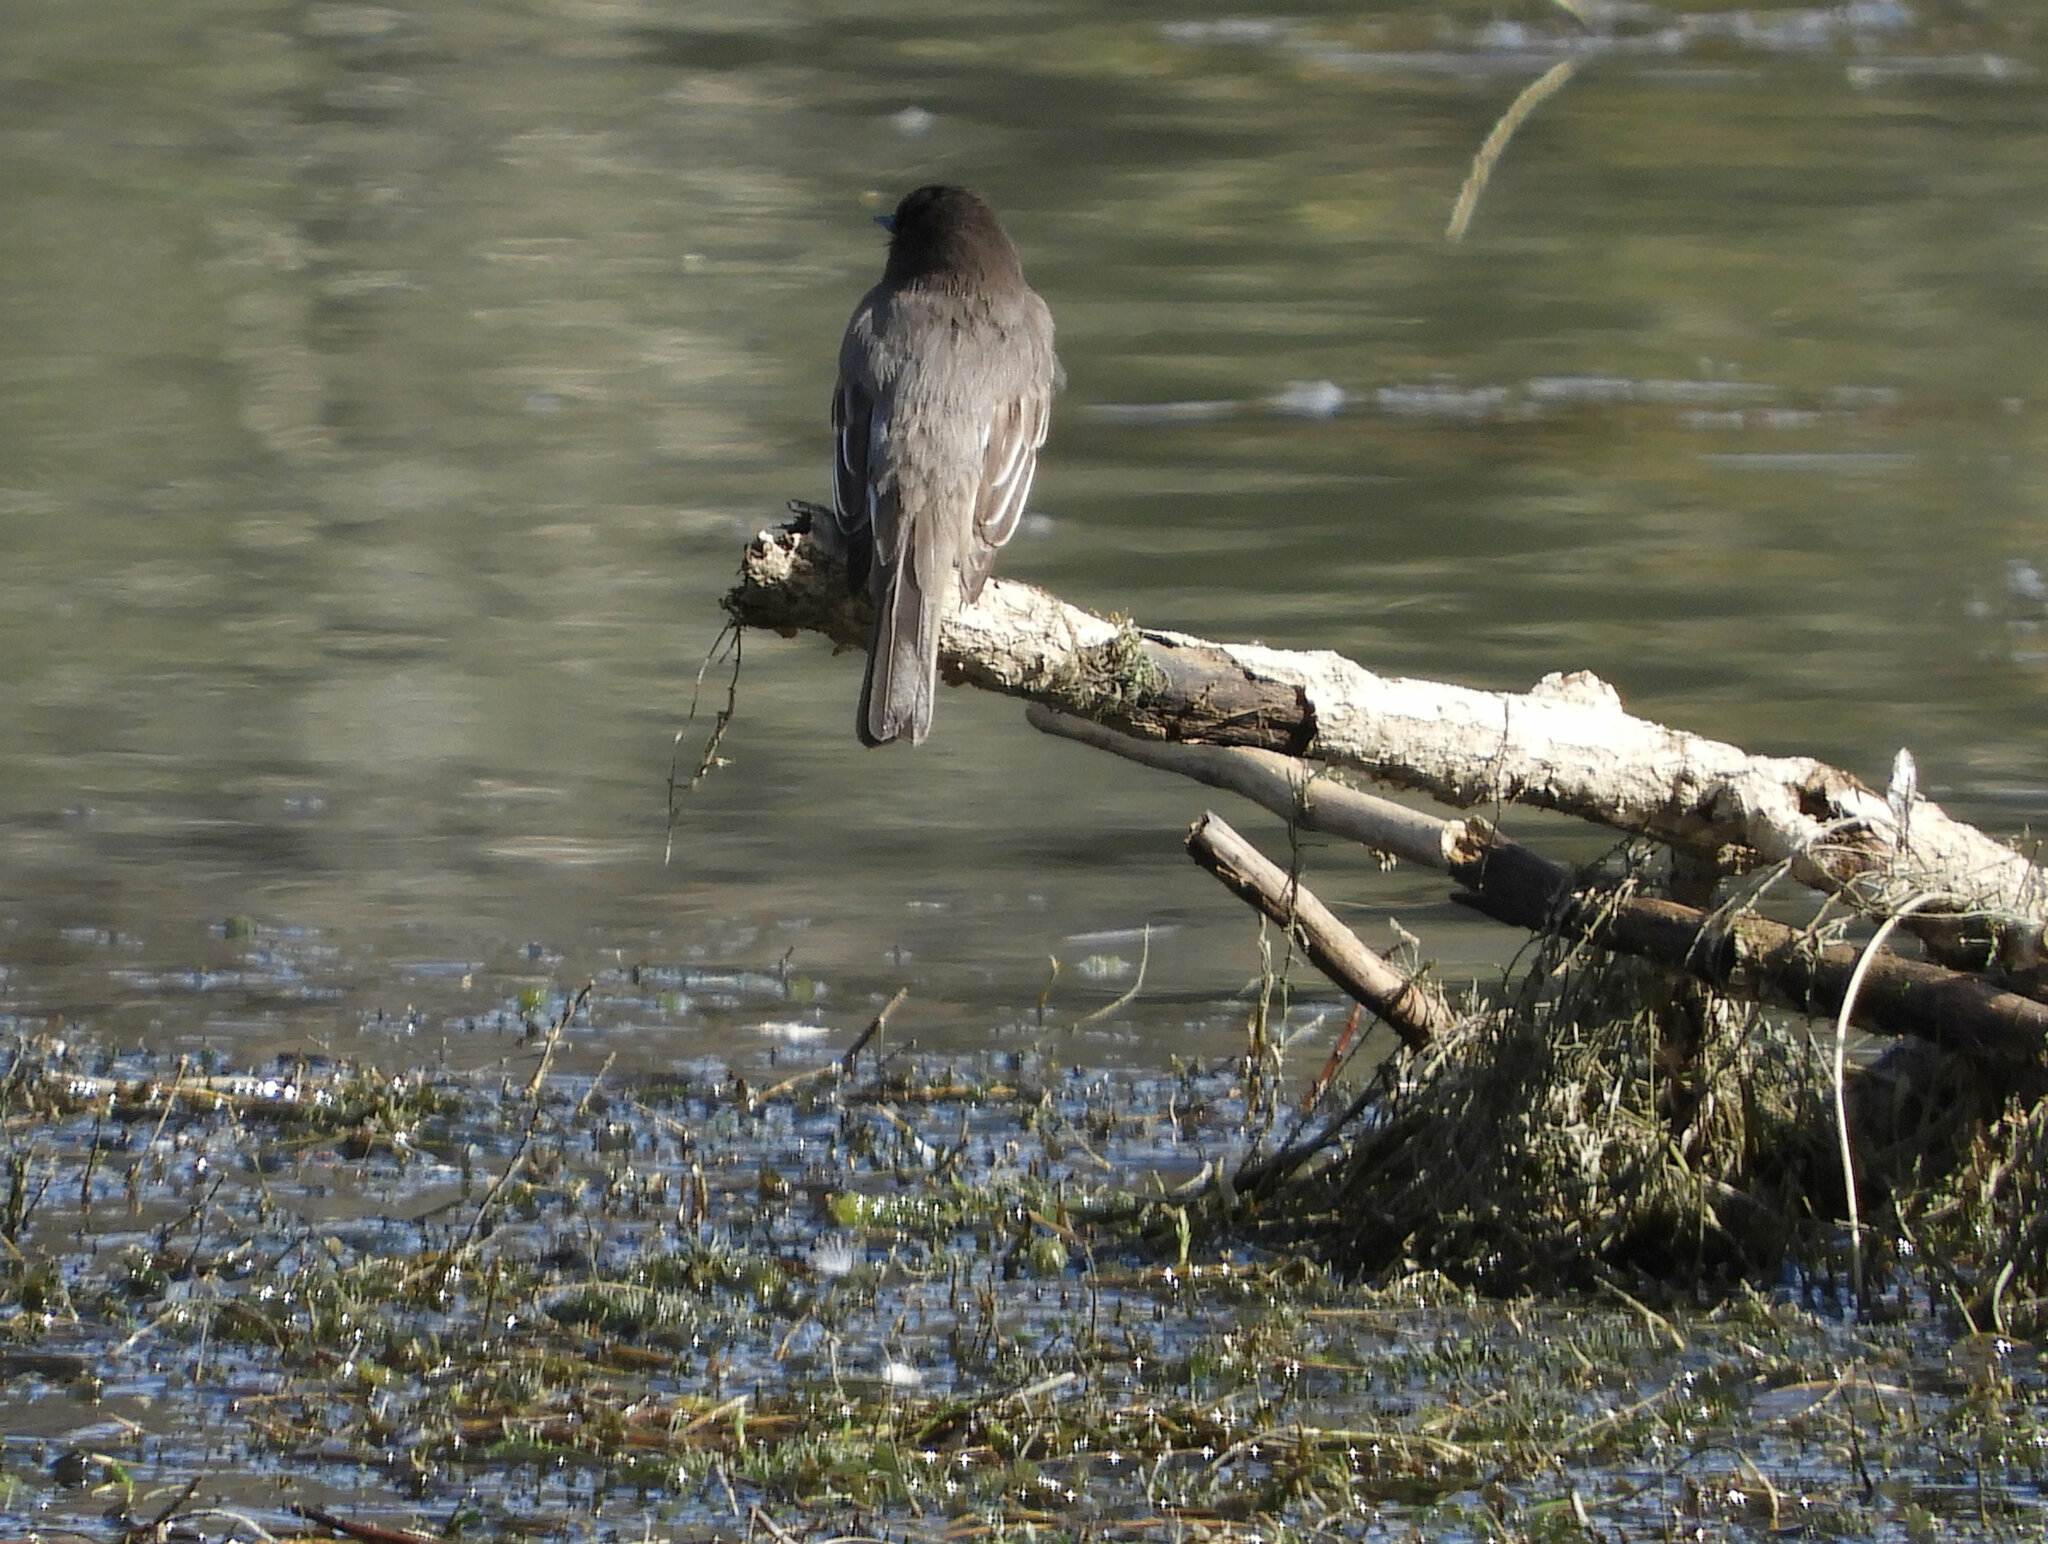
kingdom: Animalia
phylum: Chordata
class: Aves
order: Passeriformes
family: Tyrannidae
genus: Sayornis
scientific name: Sayornis nigricans
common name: Black phoebe
